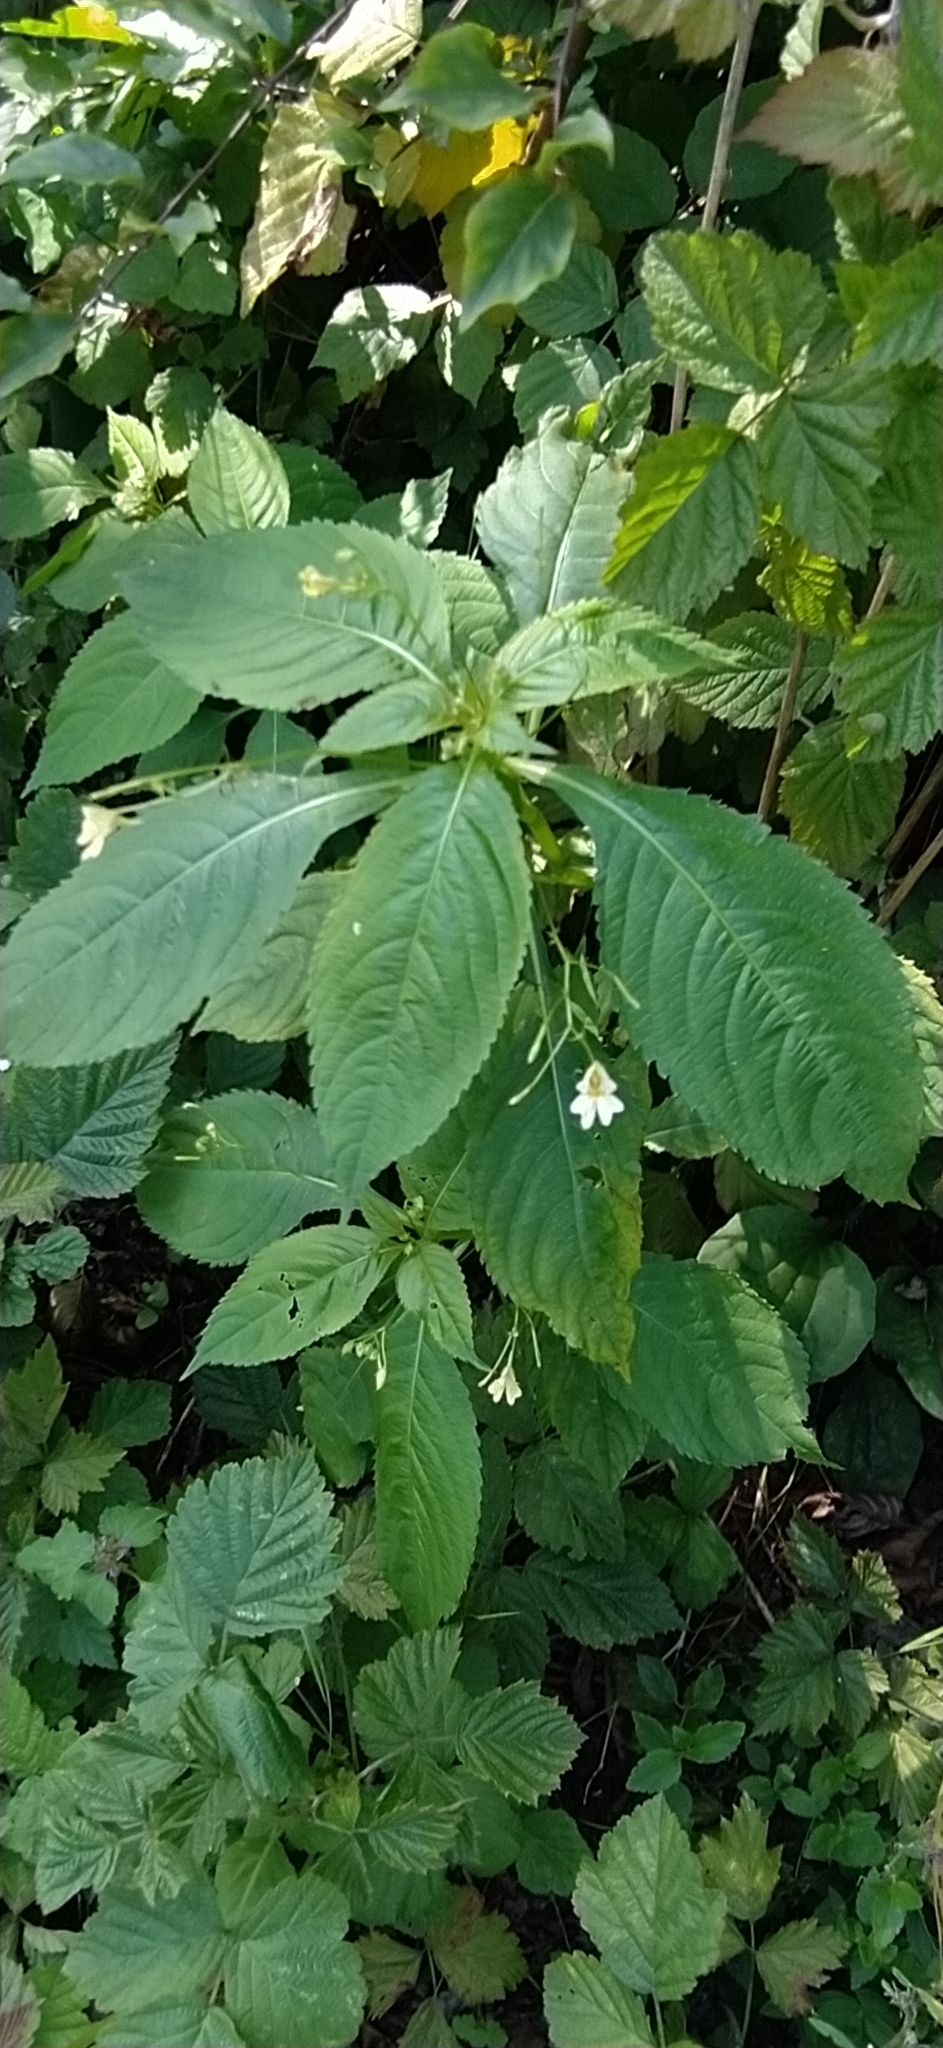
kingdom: Plantae
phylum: Tracheophyta
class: Magnoliopsida
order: Ericales
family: Balsaminaceae
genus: Impatiens
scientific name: Impatiens parviflora
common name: Small balsam
